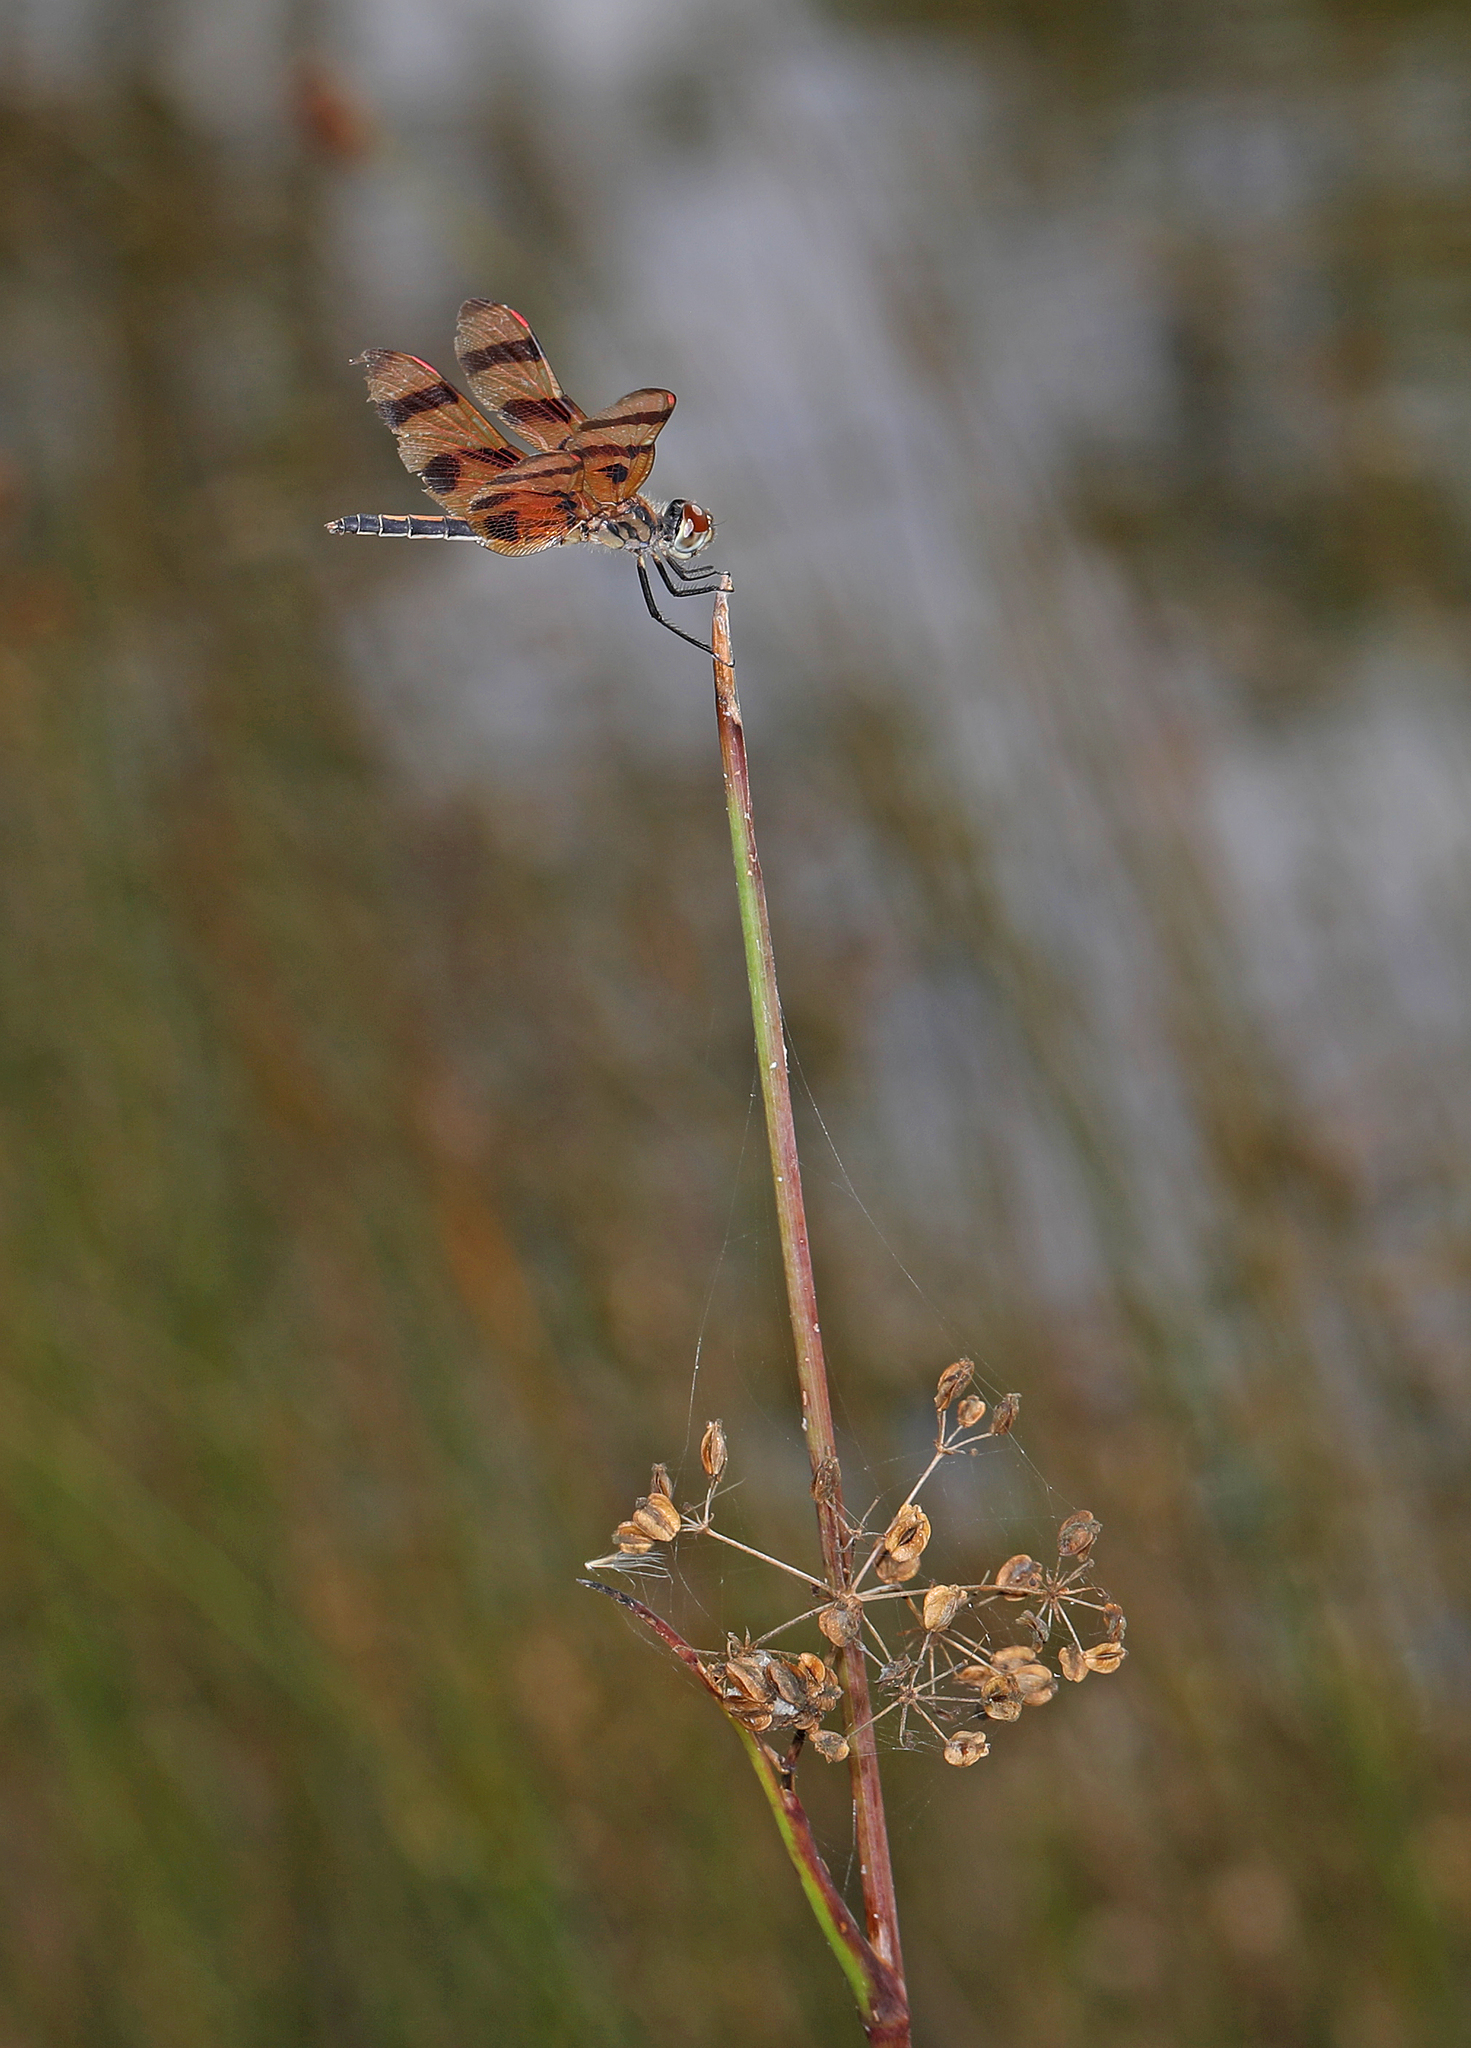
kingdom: Animalia
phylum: Arthropoda
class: Insecta
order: Odonata
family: Libellulidae
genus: Celithemis
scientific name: Celithemis eponina
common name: Halloween pennant
